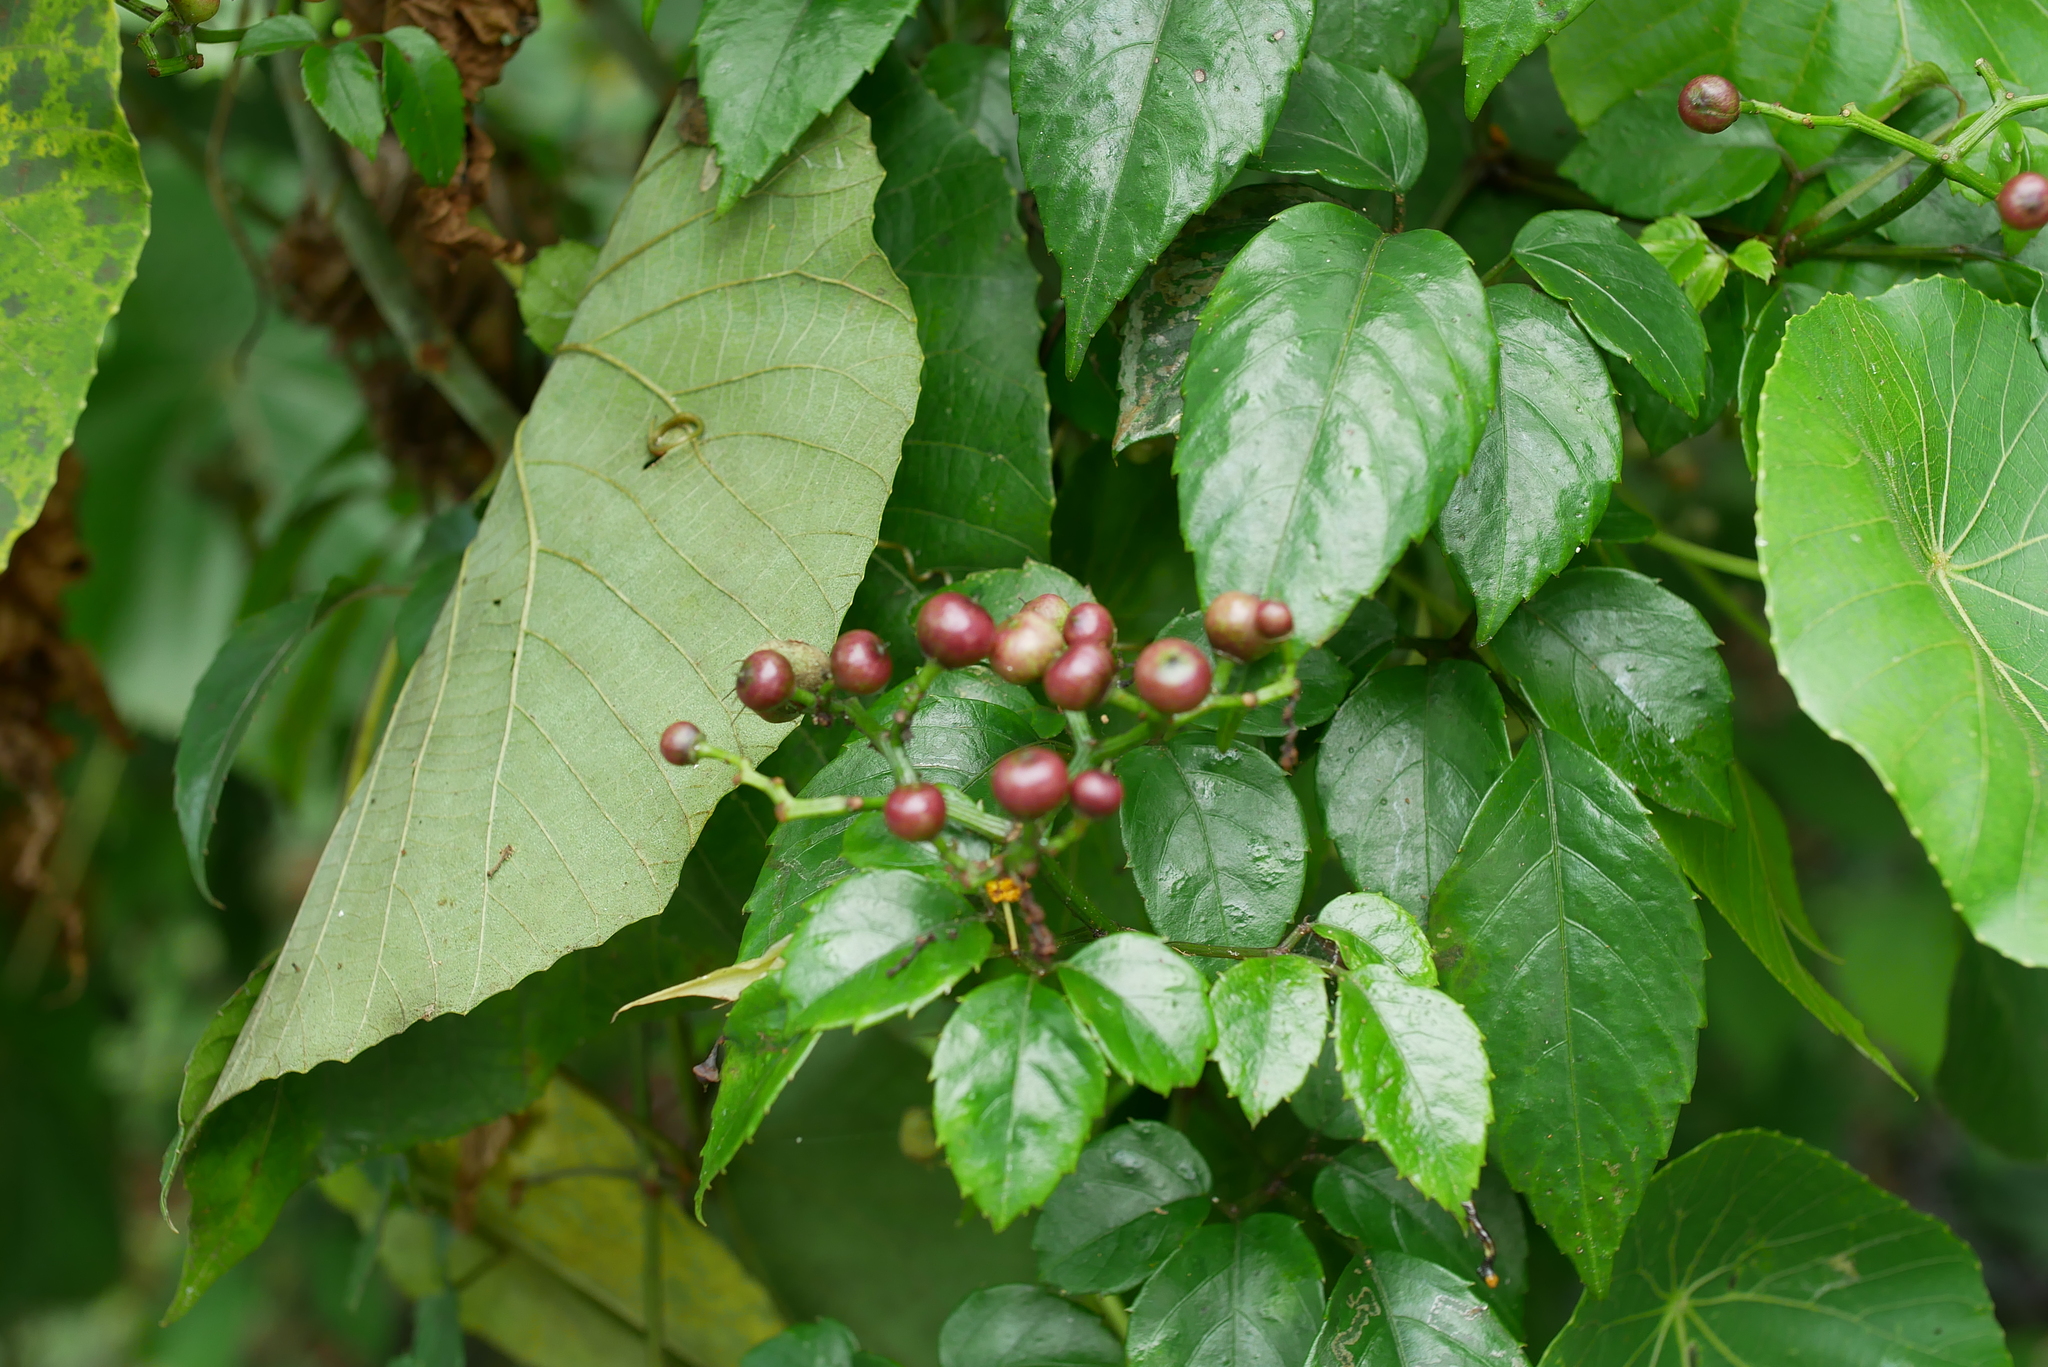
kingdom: Plantae
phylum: Tracheophyta
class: Magnoliopsida
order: Vitales
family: Vitaceae
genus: Causonis
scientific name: Causonis corniculata
